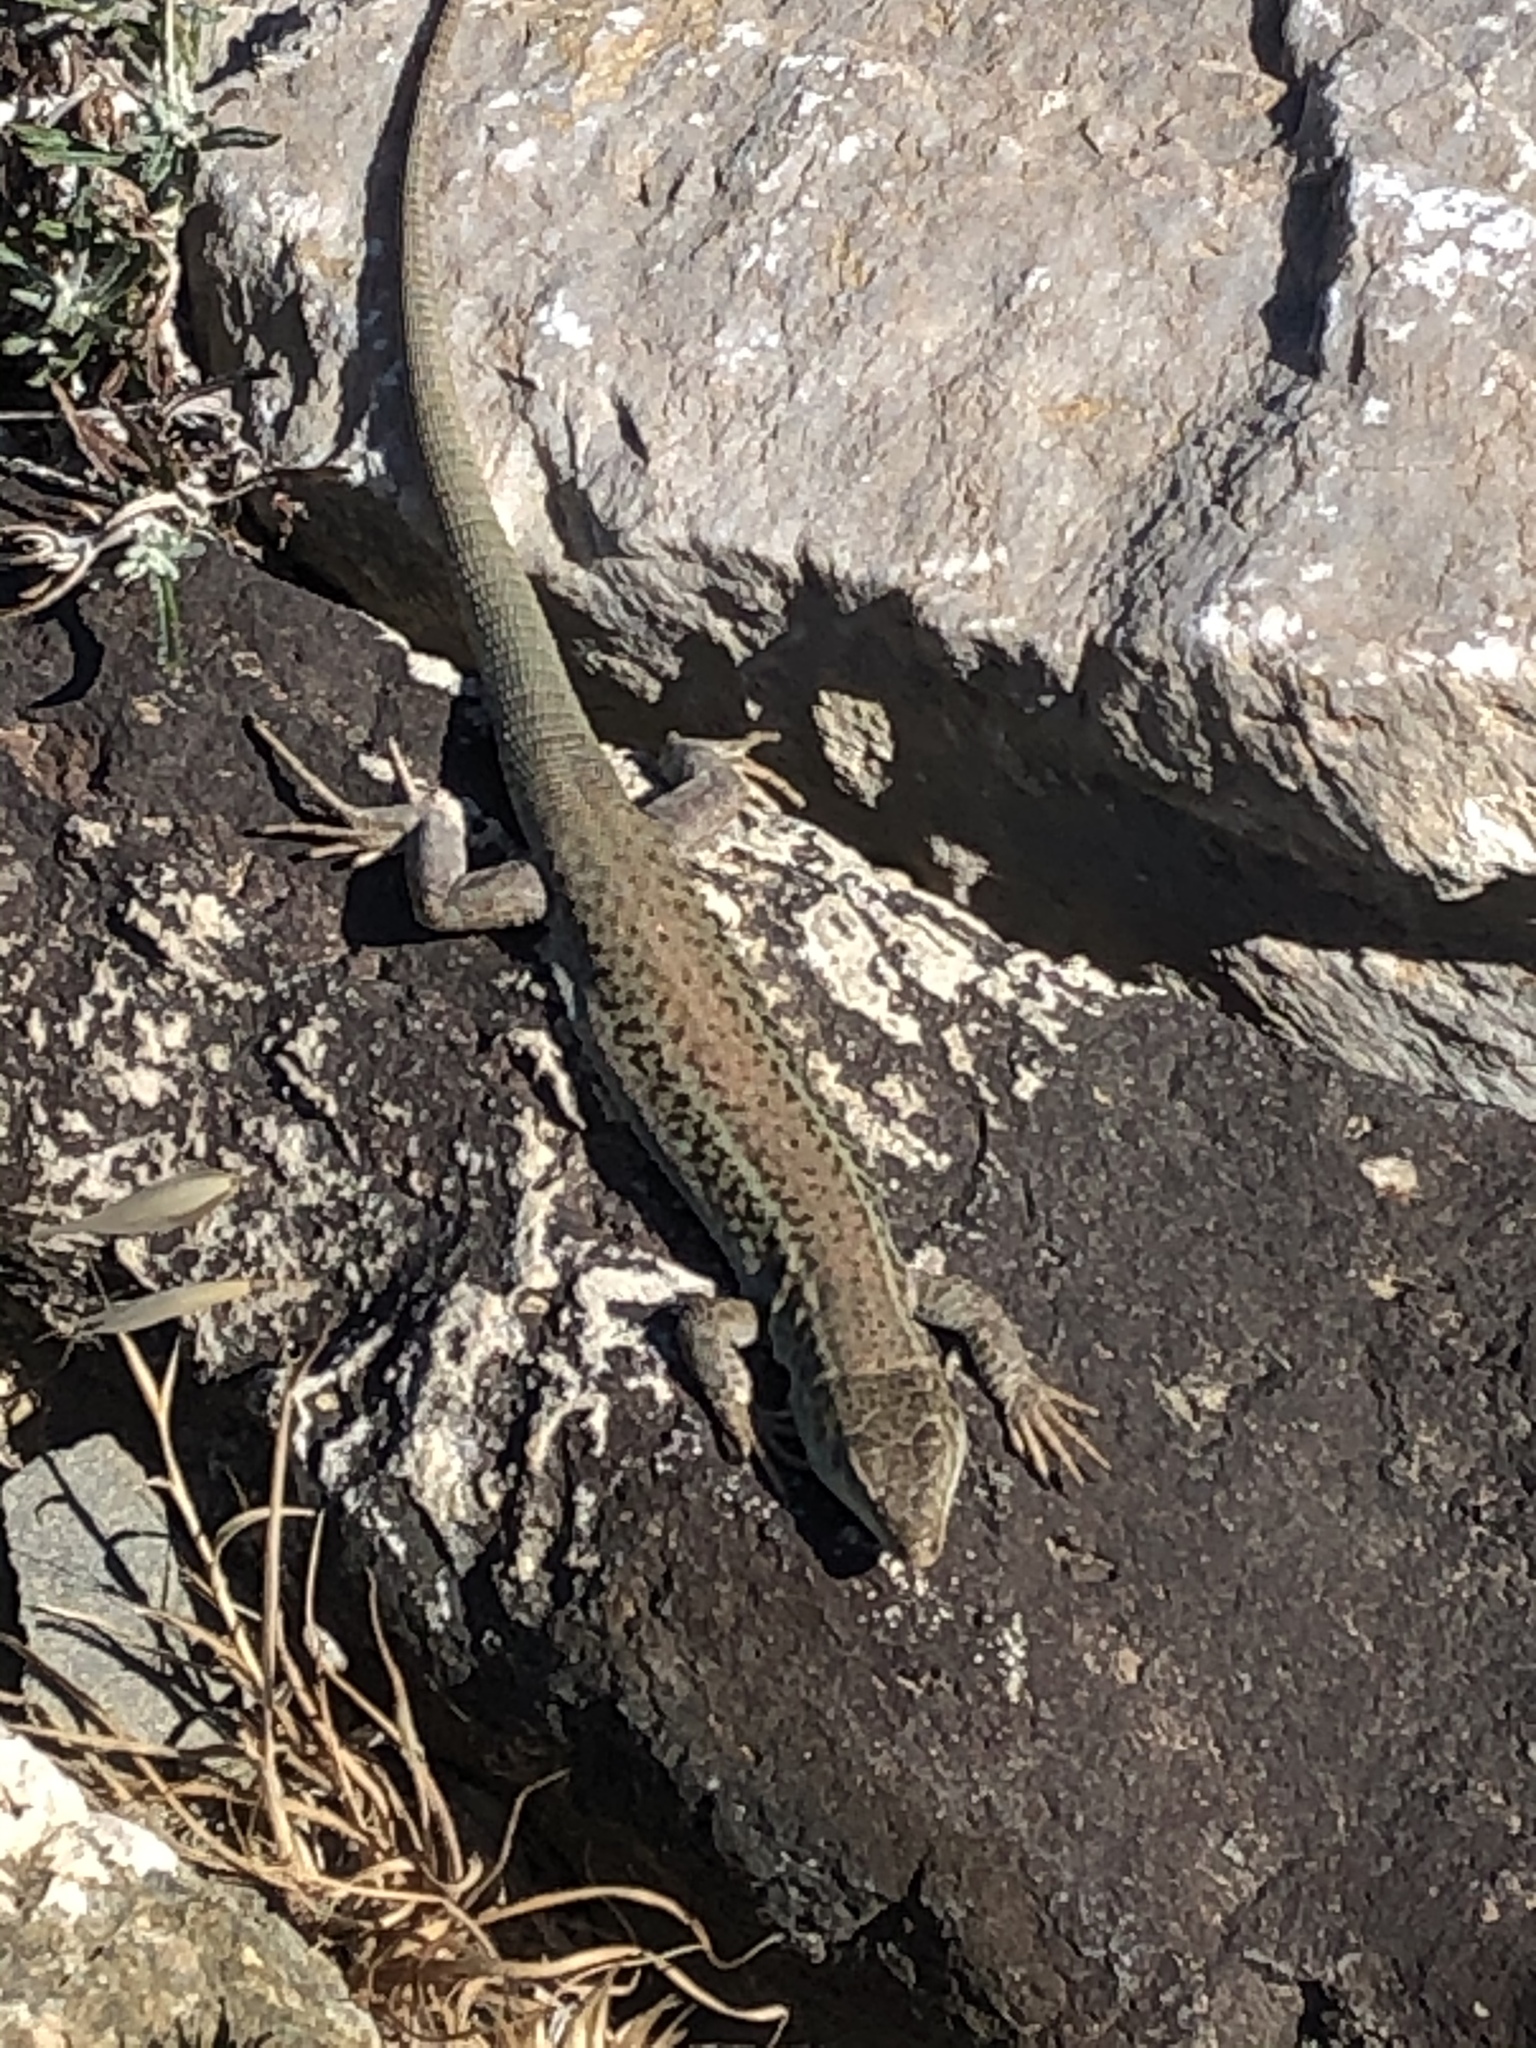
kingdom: Animalia
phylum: Chordata
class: Squamata
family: Lacertidae
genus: Podarcis
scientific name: Podarcis erhardii
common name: Erhard's wall lizard
